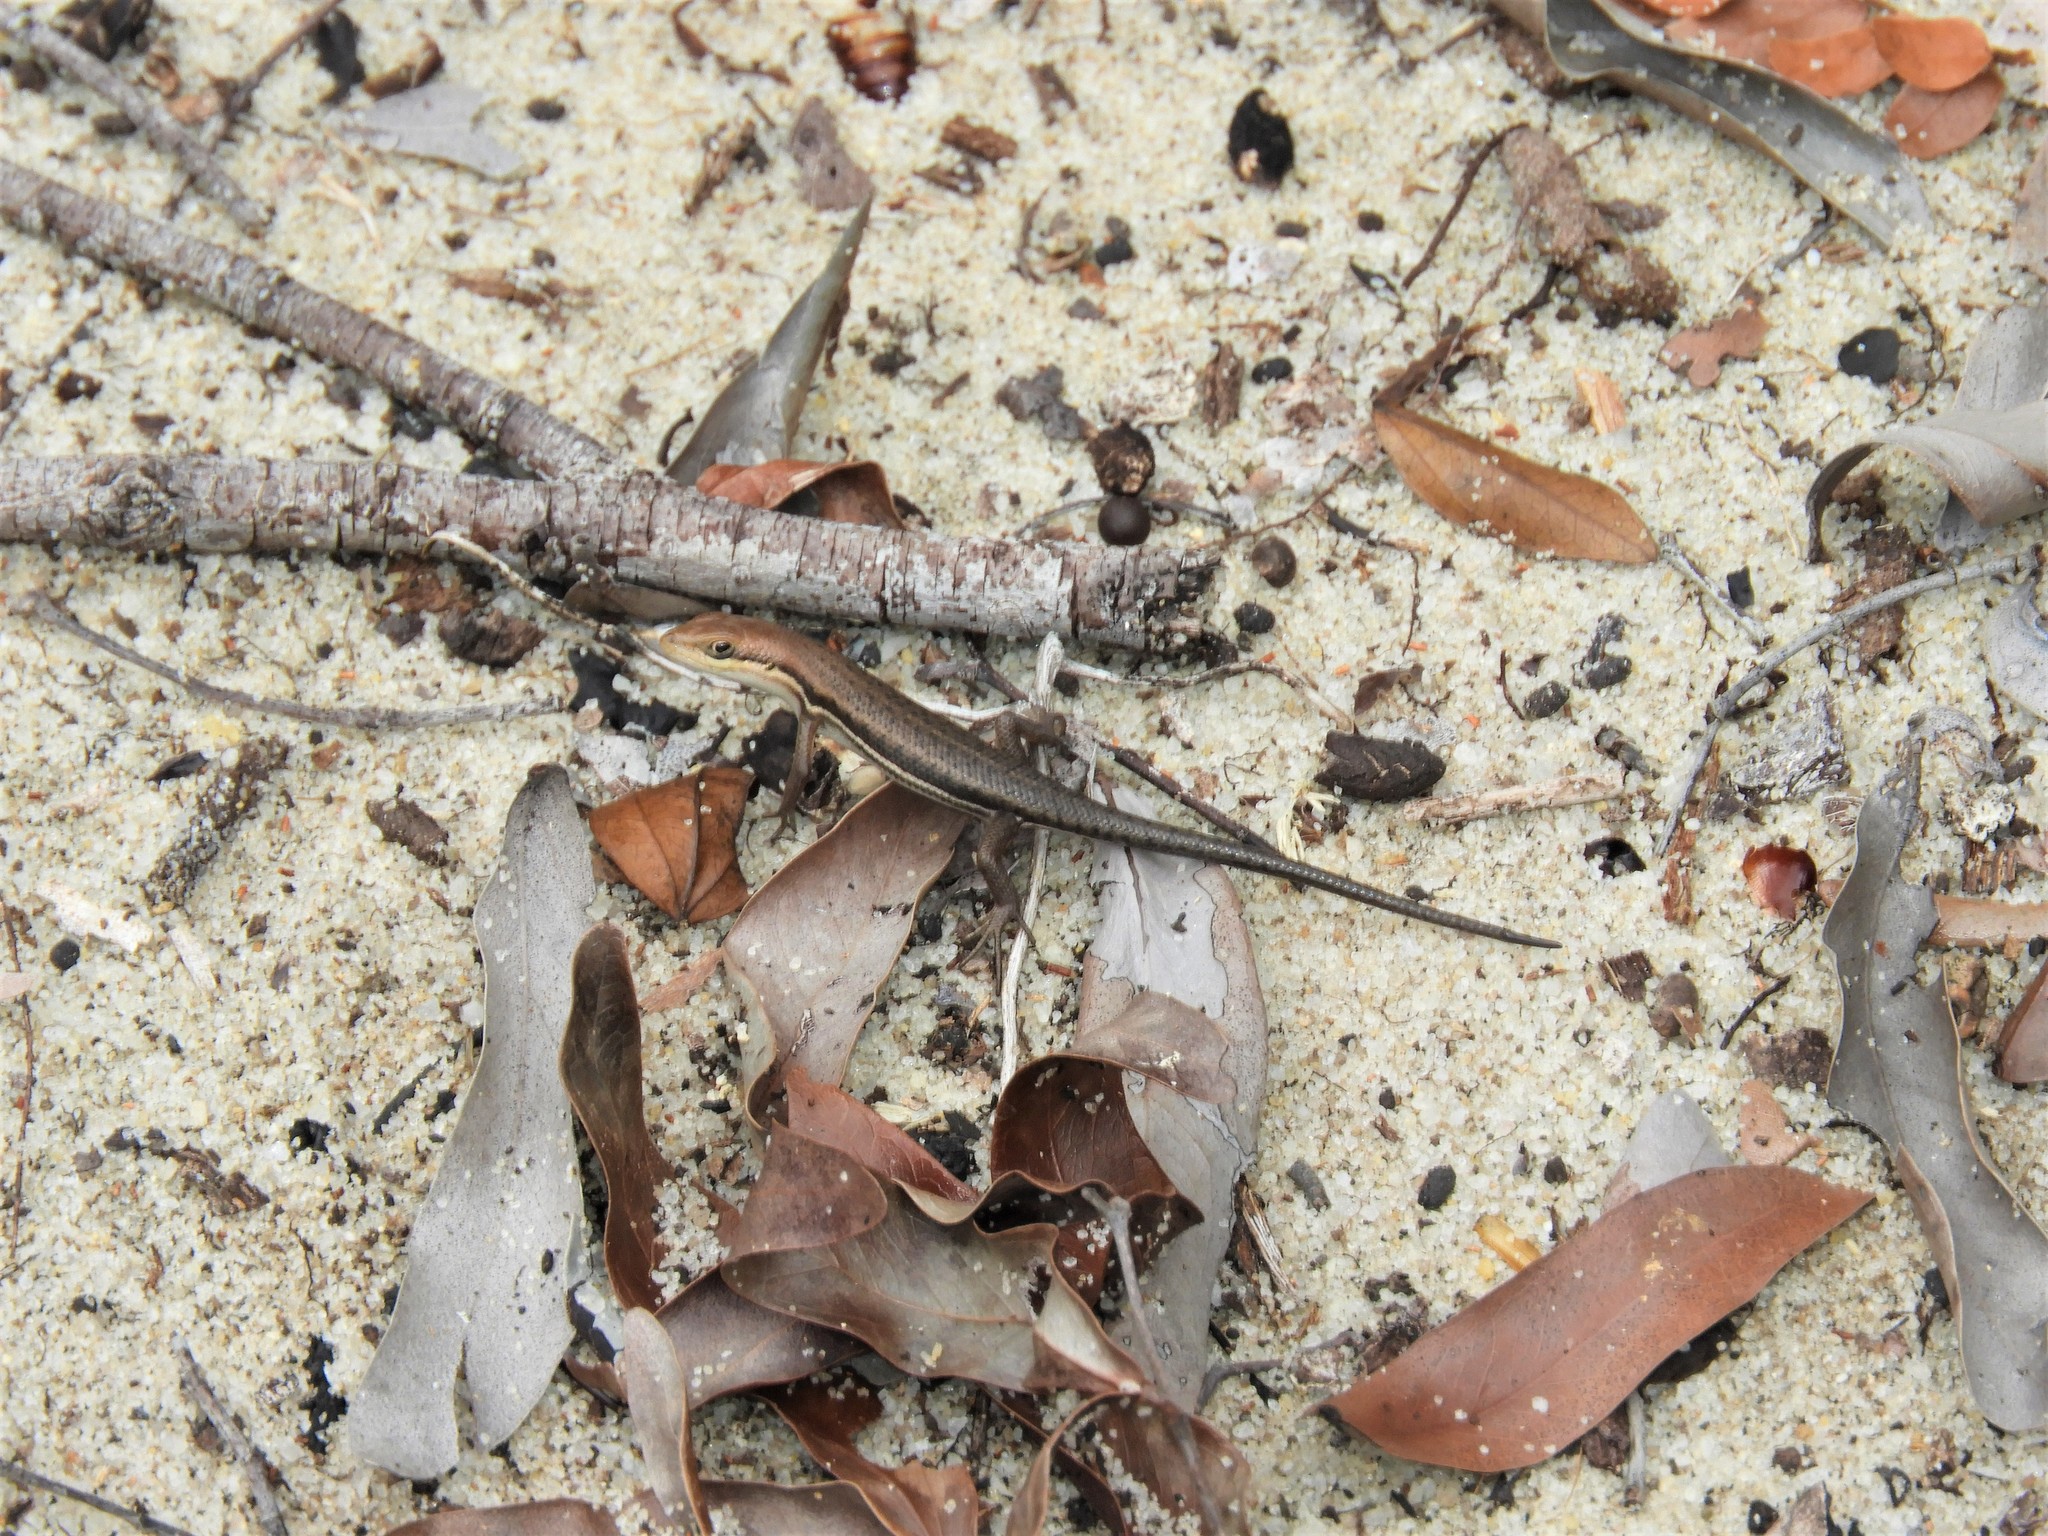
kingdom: Animalia
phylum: Chordata
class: Squamata
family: Scincidae
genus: Trachylepis
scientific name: Trachylepis varia
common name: Eastern variable skink
